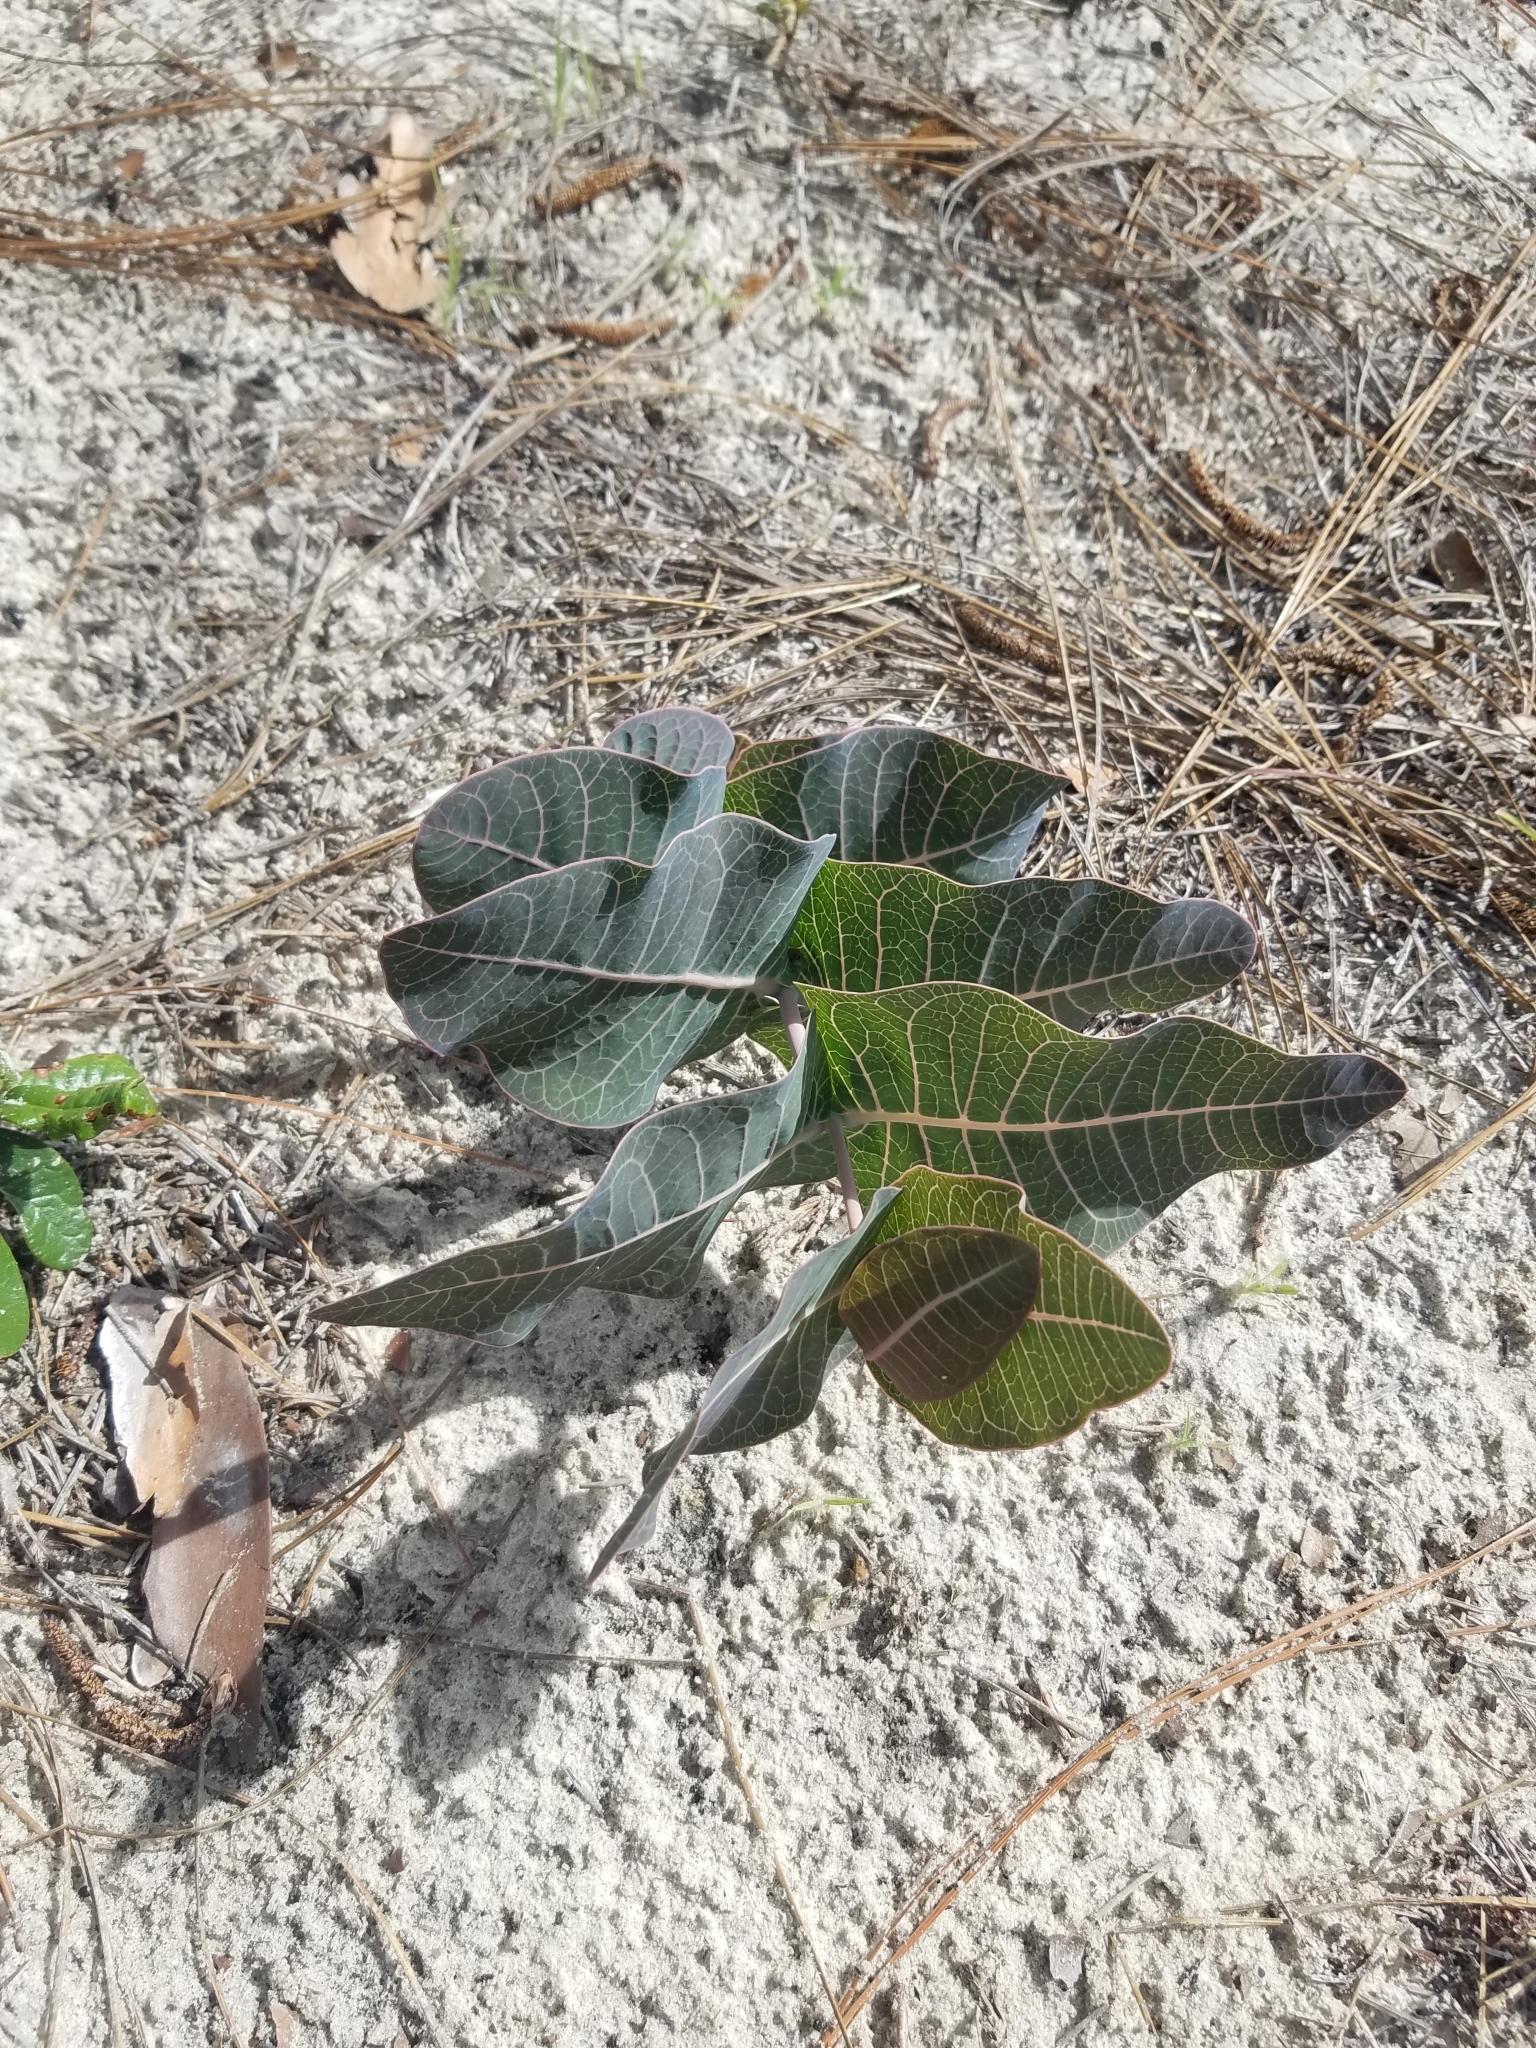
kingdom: Plantae
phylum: Tracheophyta
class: Magnoliopsida
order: Gentianales
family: Apocynaceae
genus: Asclepias
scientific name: Asclepias humistrata
